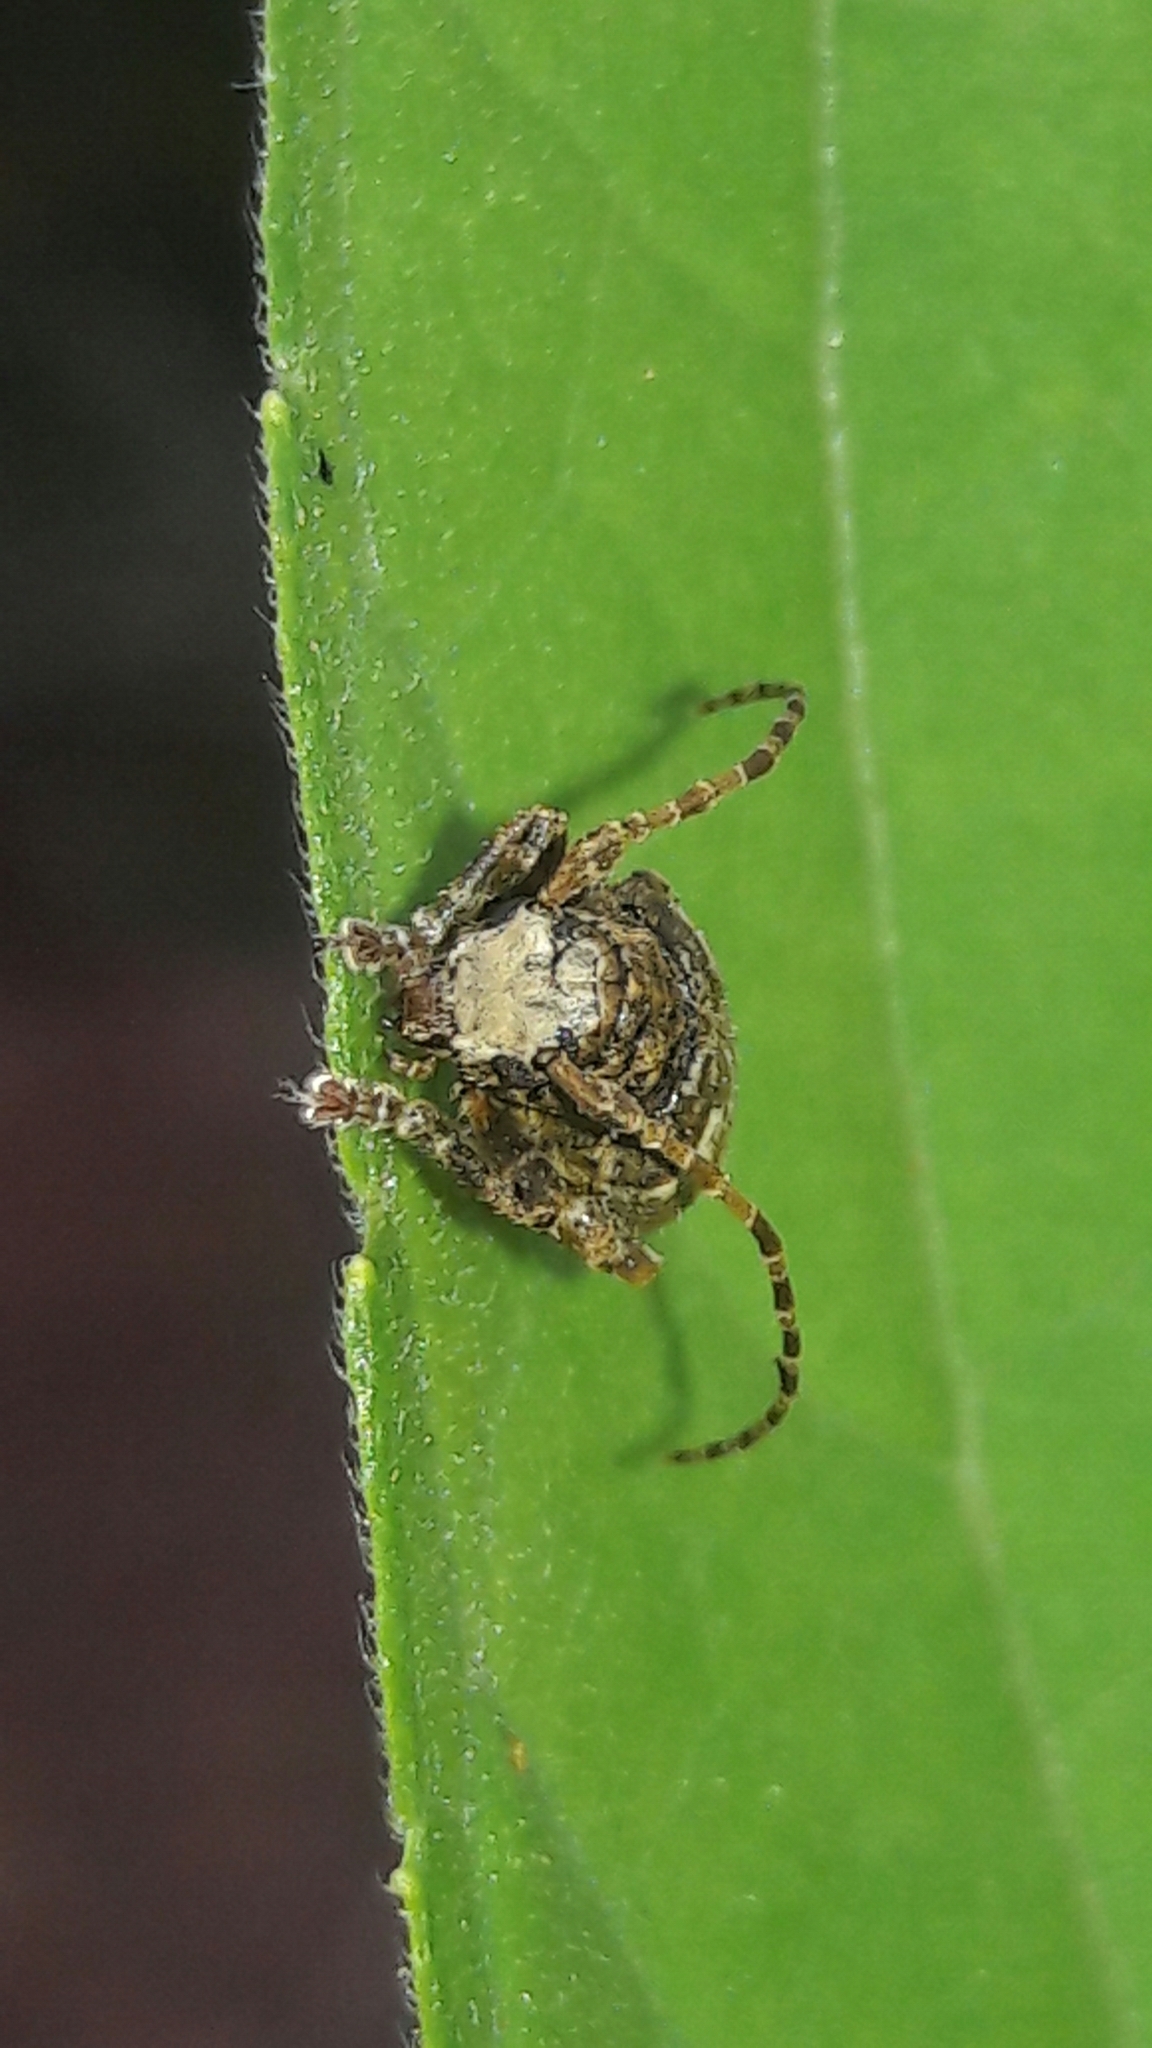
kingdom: Animalia
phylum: Arthropoda
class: Insecta
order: Coleoptera
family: Cerambycidae
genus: Aerenea
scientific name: Aerenea quadriplagiata
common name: Amaranth stem borer
